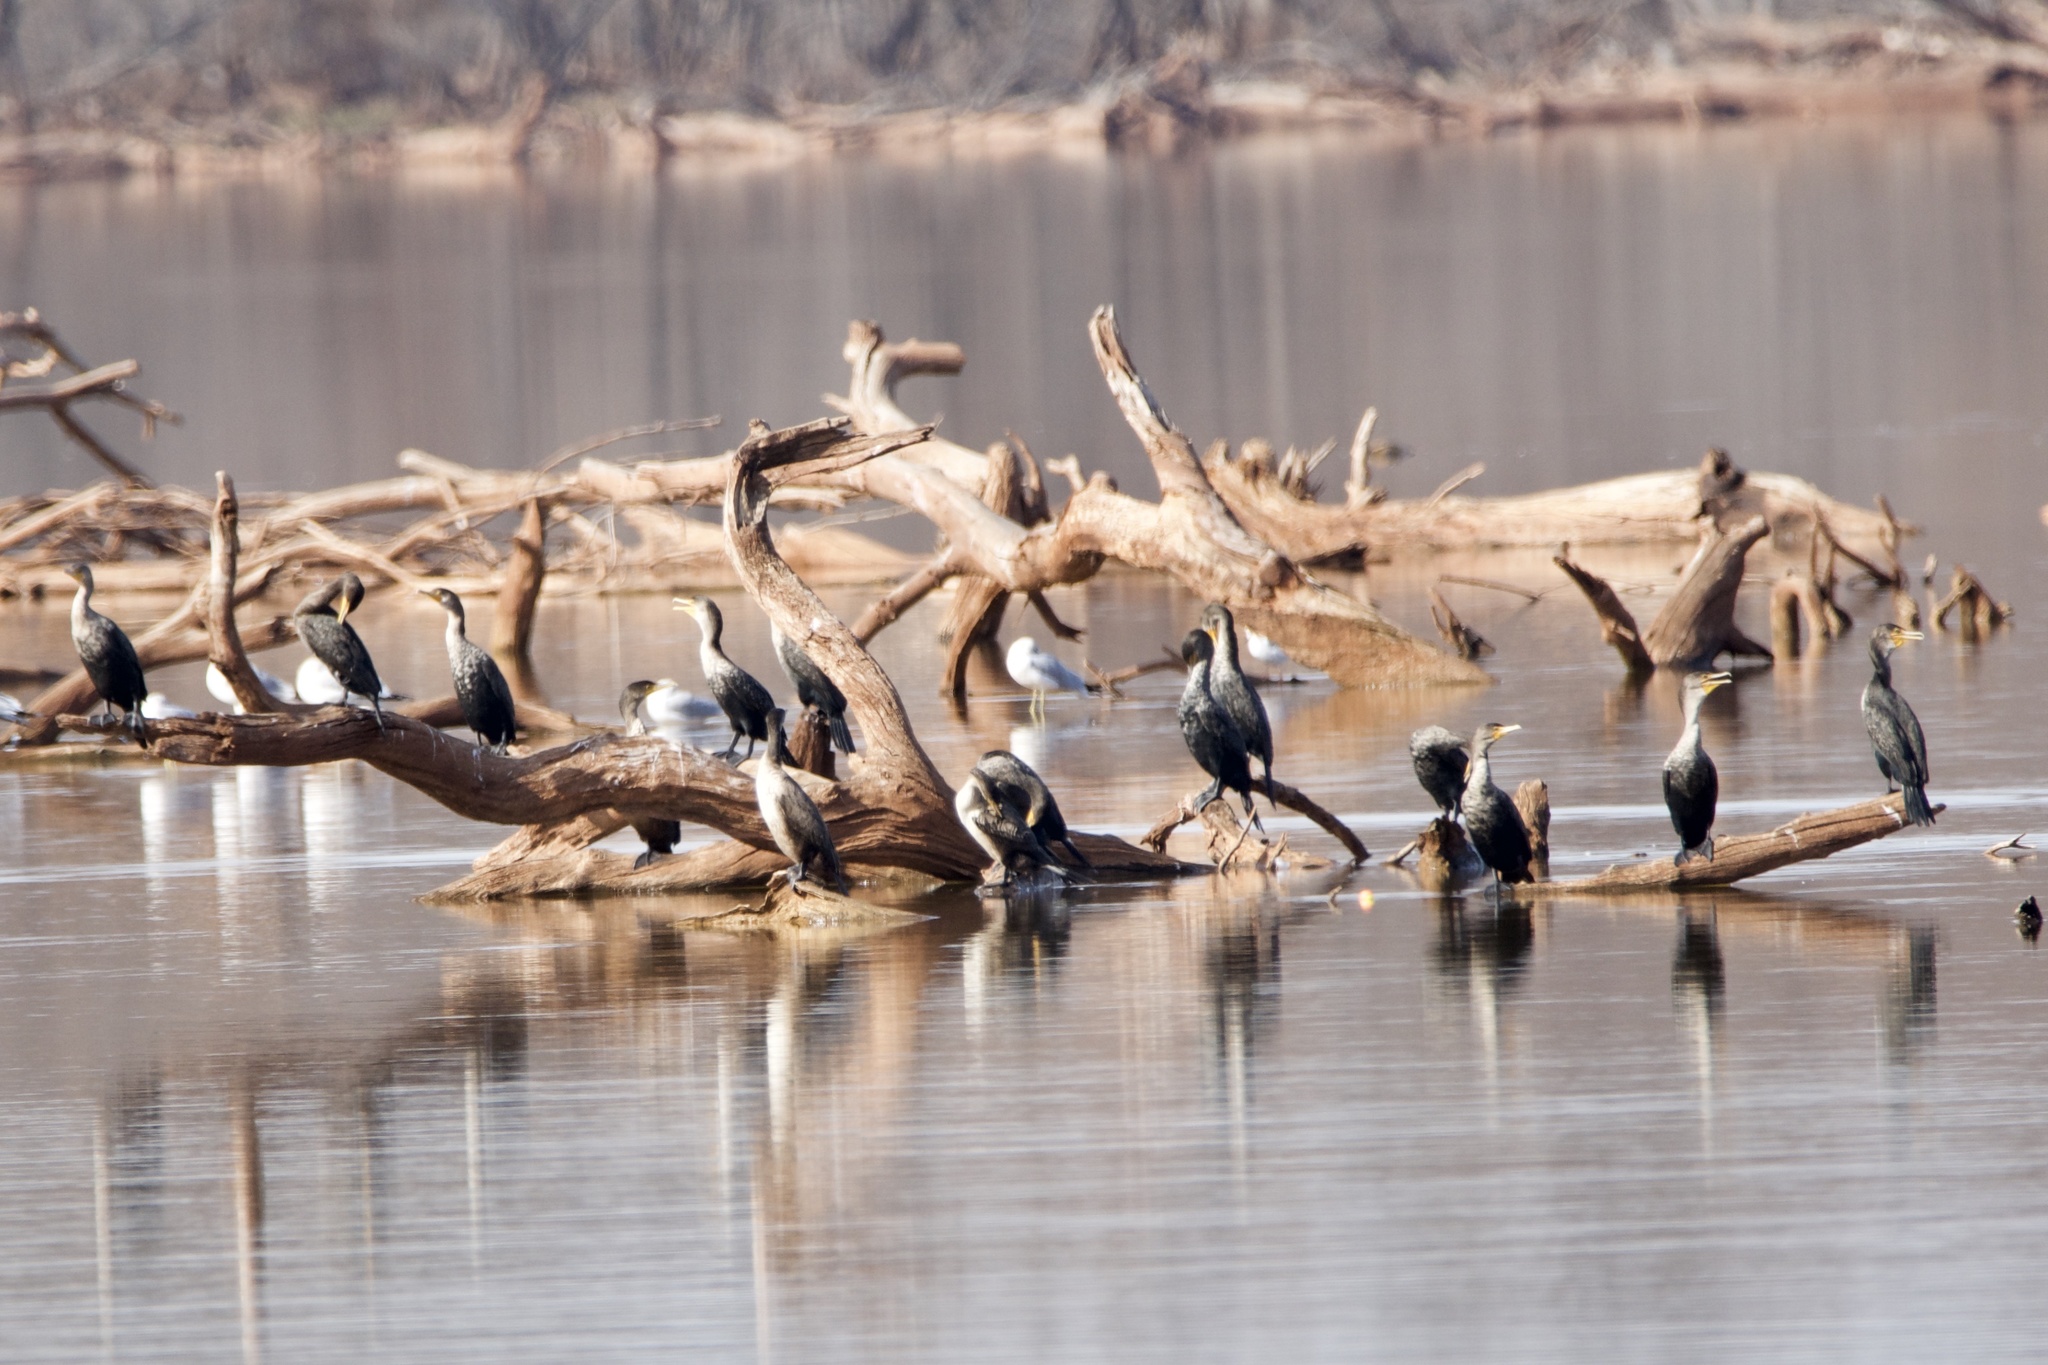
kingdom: Animalia
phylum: Chordata
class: Aves
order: Suliformes
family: Phalacrocoracidae
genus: Phalacrocorax
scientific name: Phalacrocorax auritus
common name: Double-crested cormorant
